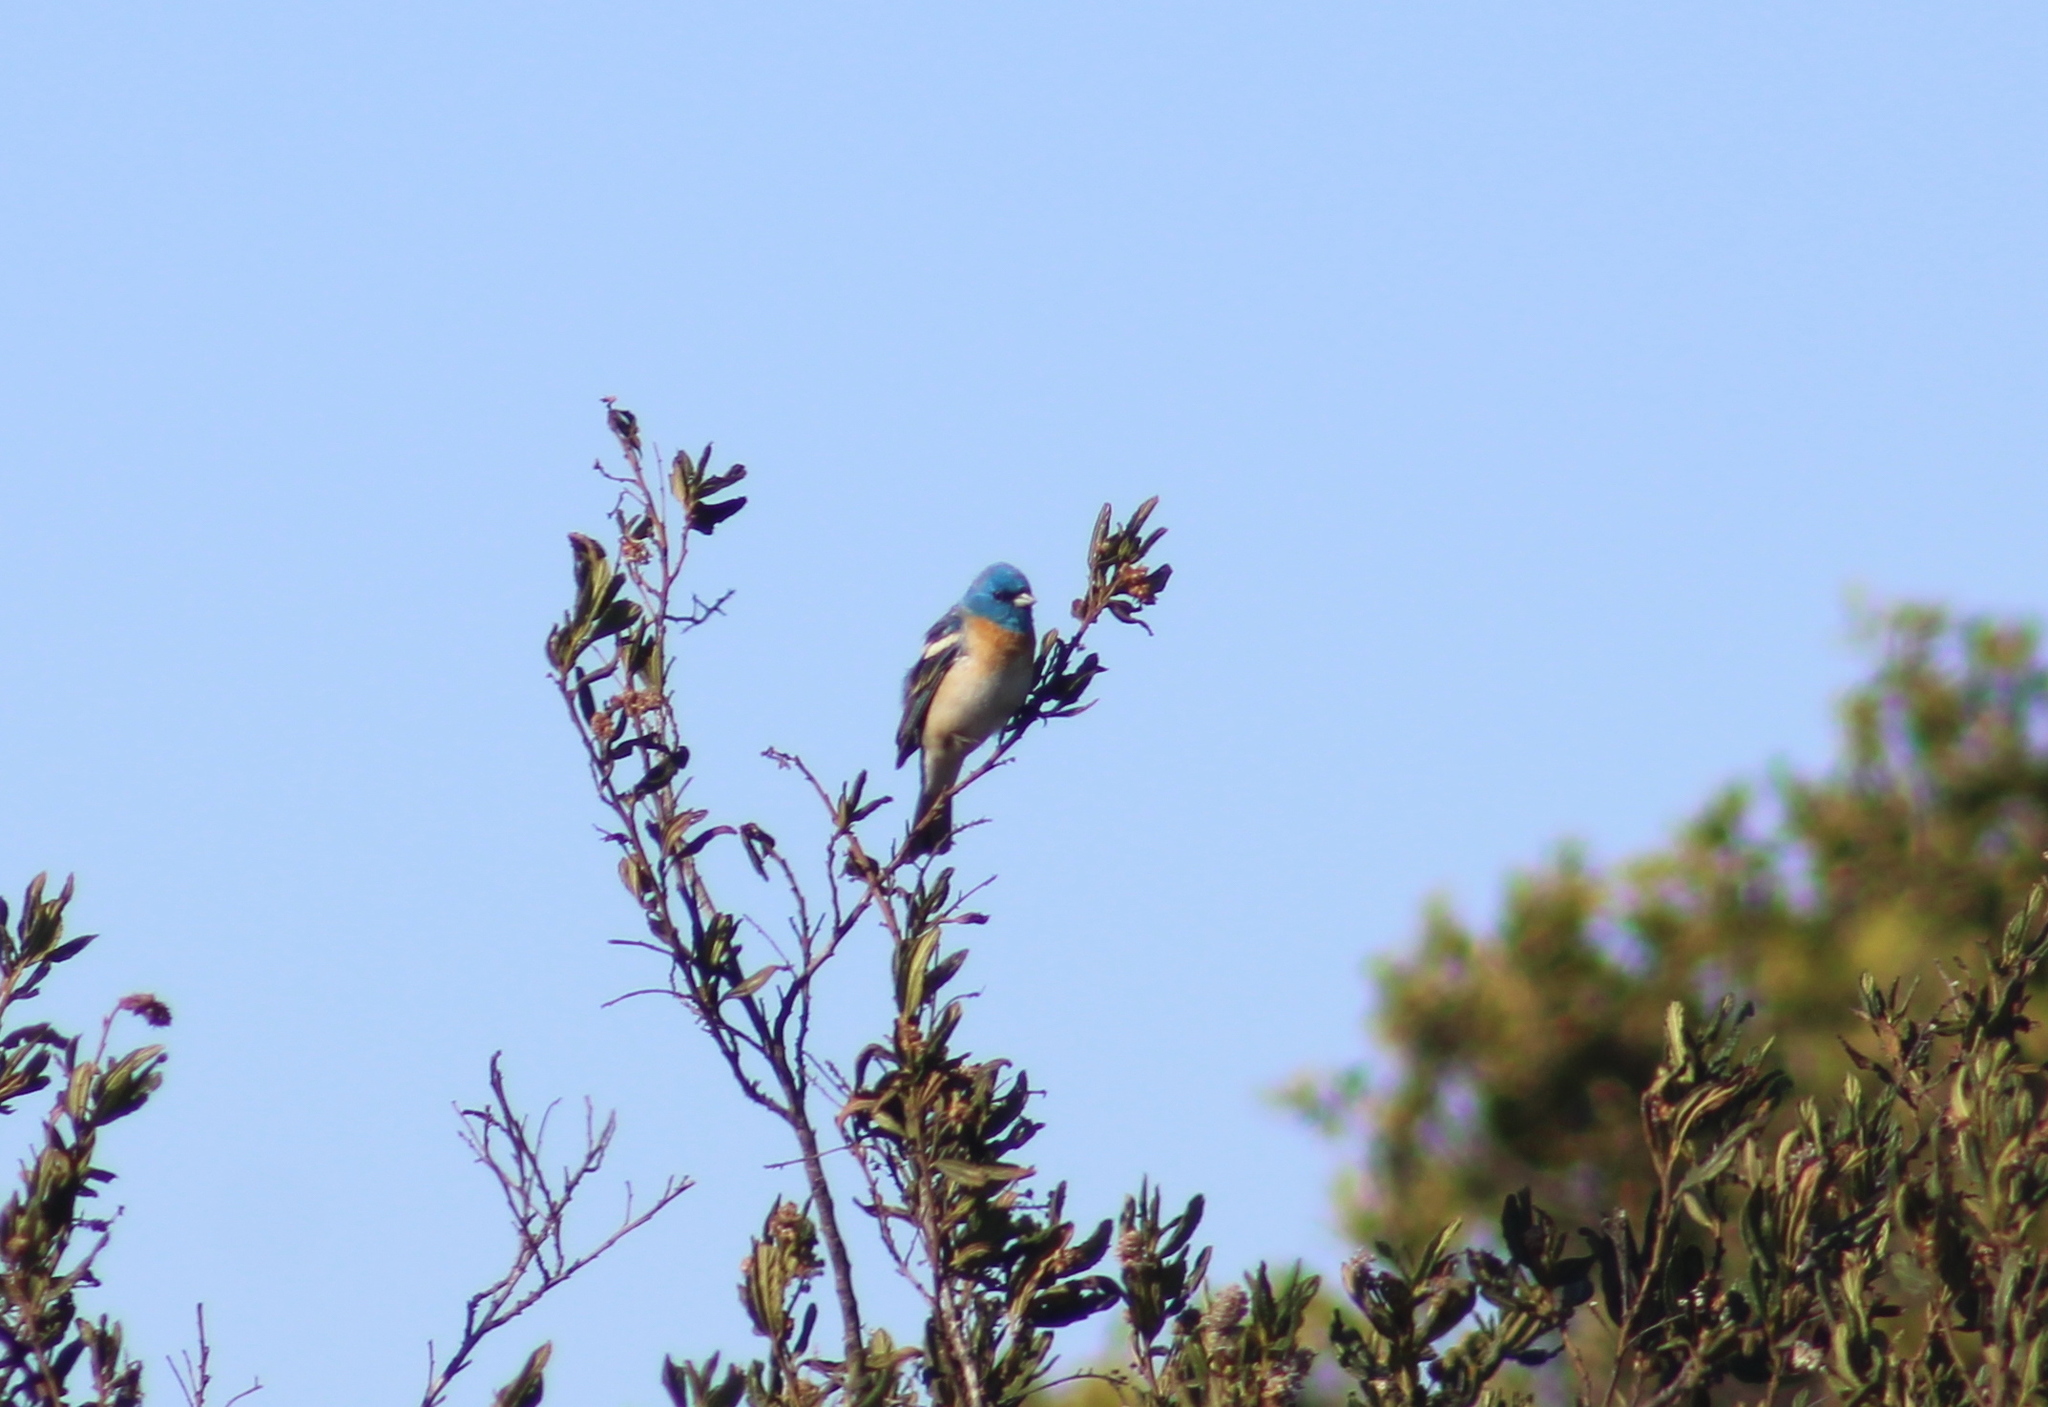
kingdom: Animalia
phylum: Chordata
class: Aves
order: Passeriformes
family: Cardinalidae
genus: Passerina
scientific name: Passerina amoena
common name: Lazuli bunting
